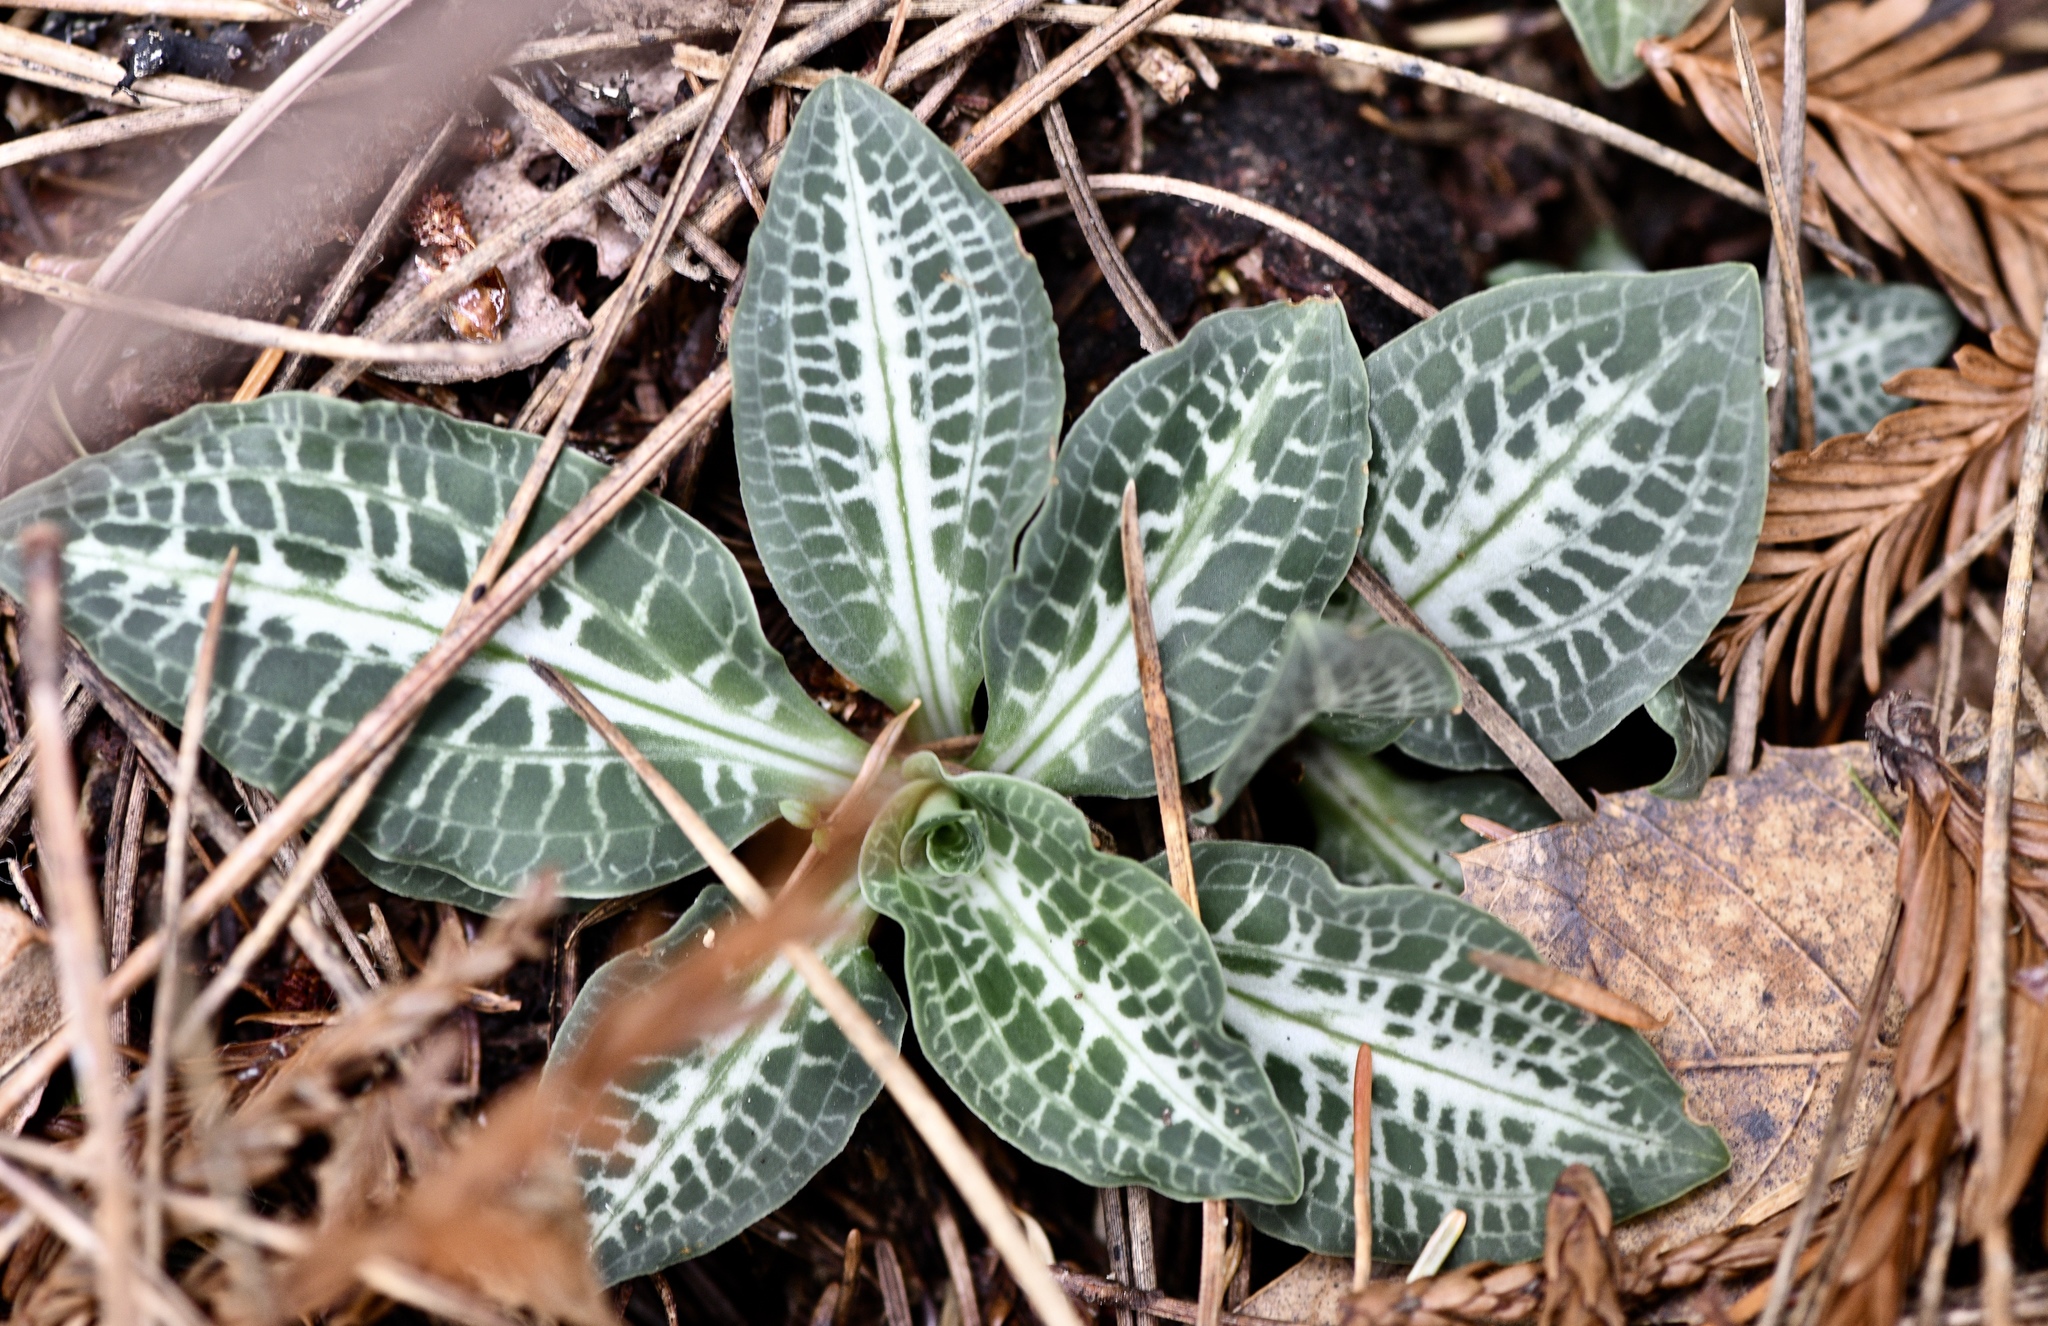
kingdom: Plantae
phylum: Tracheophyta
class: Liliopsida
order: Asparagales
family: Orchidaceae
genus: Goodyera
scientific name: Goodyera oblongifolia
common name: Giant rattlesnake-plantain
